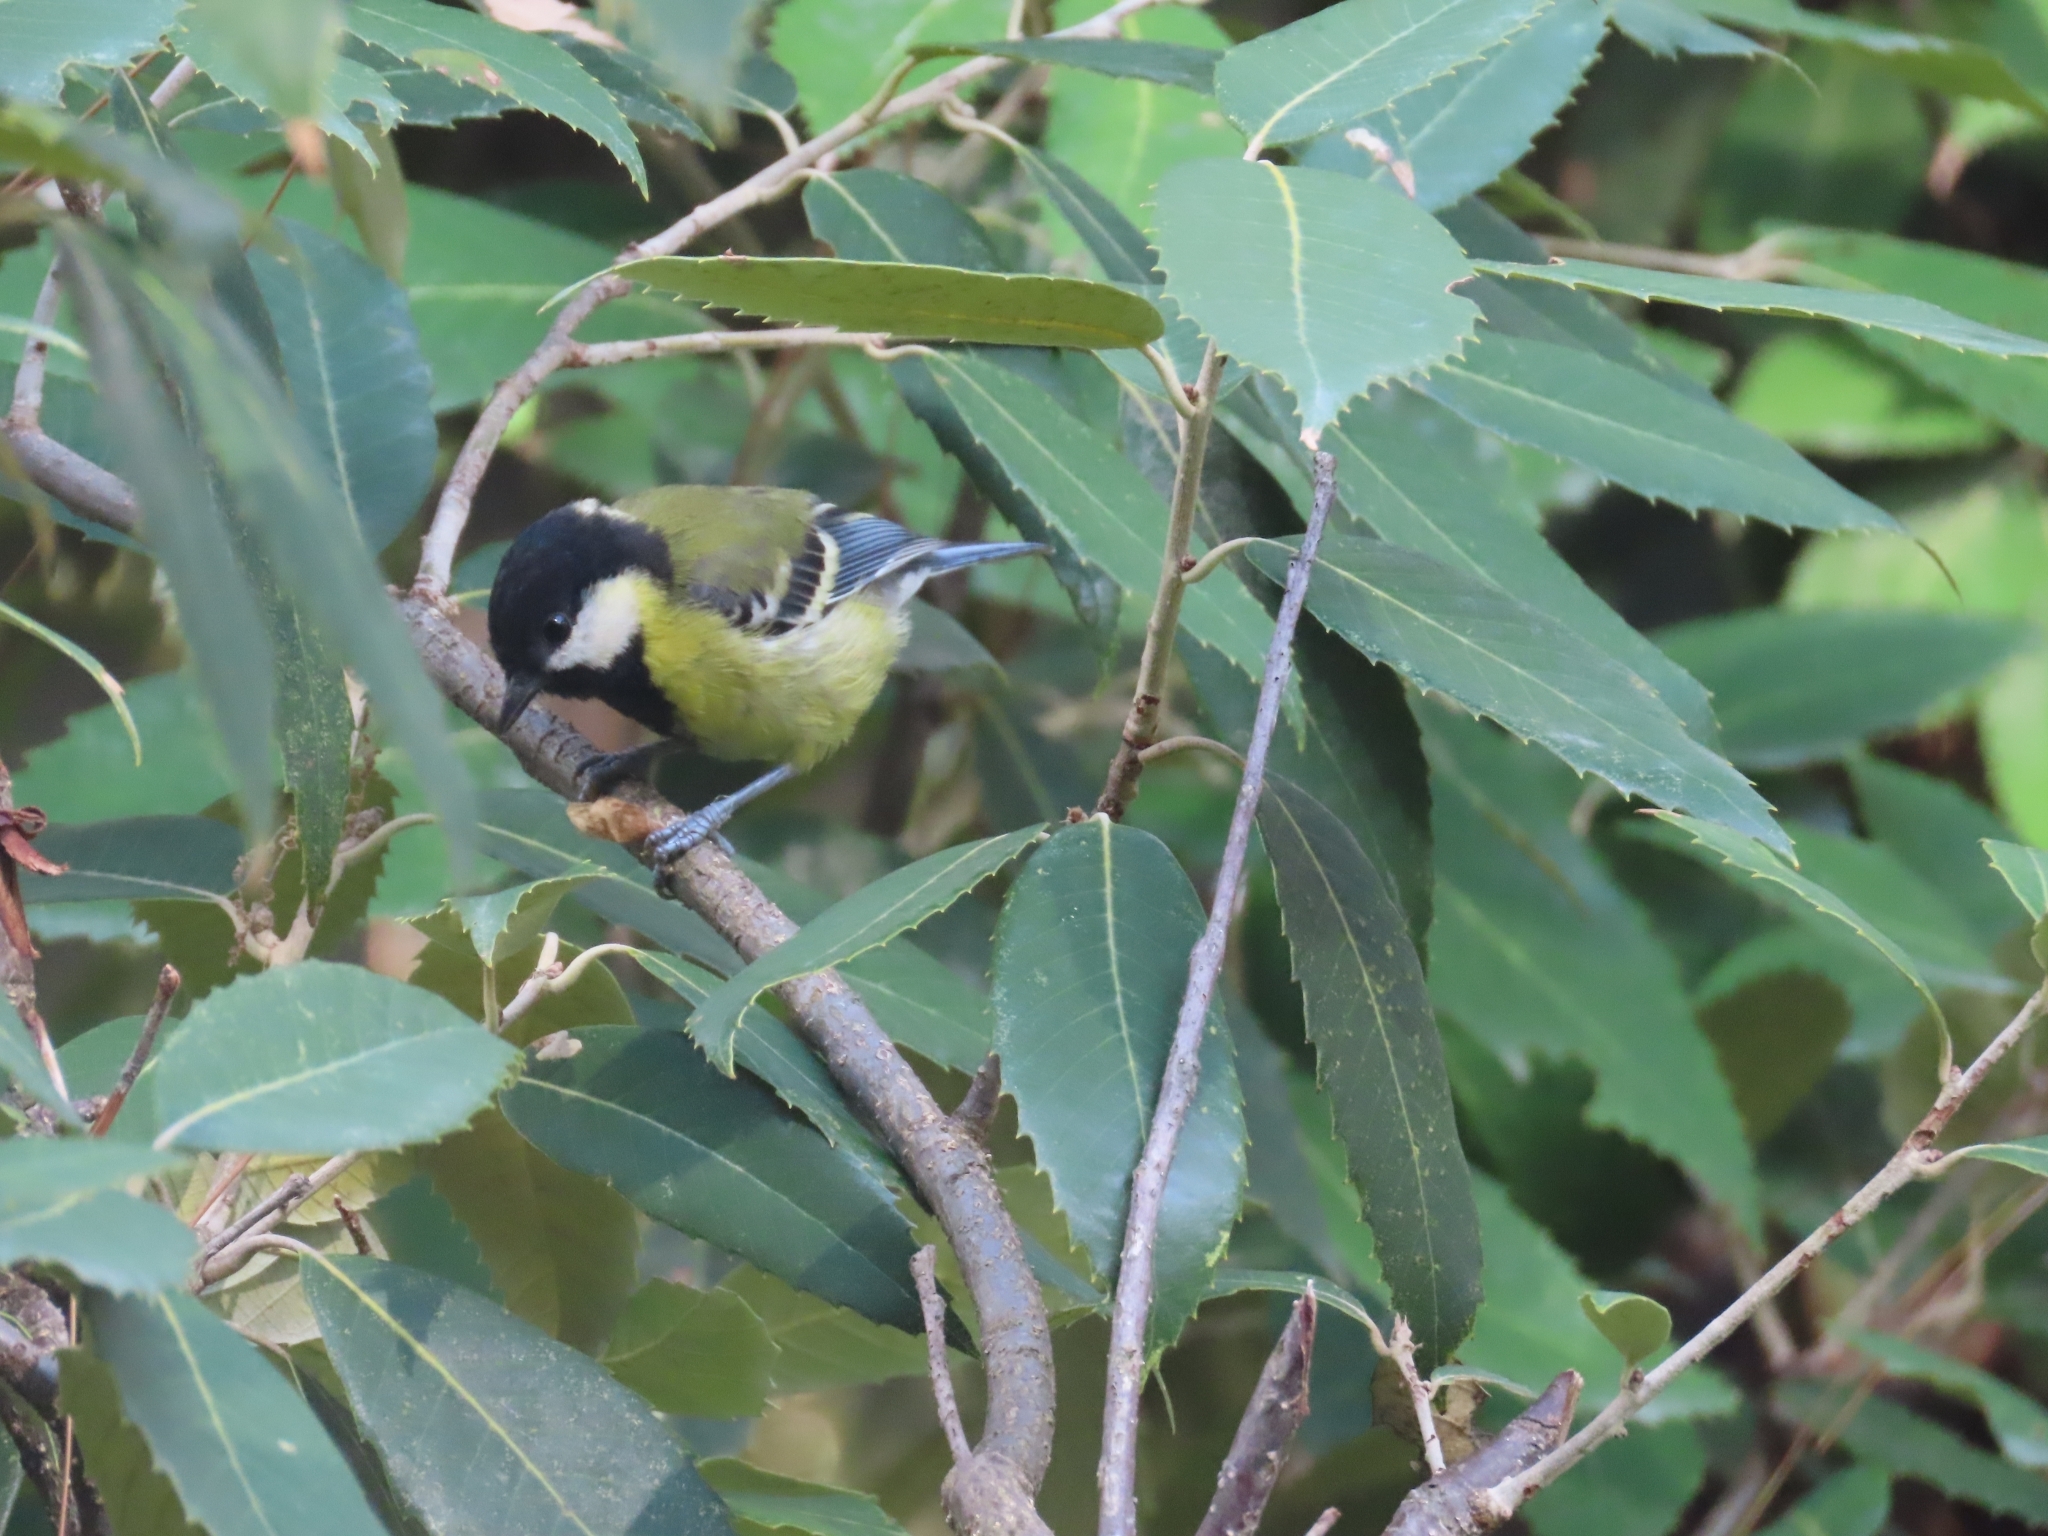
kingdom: Animalia
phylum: Chordata
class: Aves
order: Passeriformes
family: Paridae
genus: Parus
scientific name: Parus monticolus
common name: Green-backed tit
